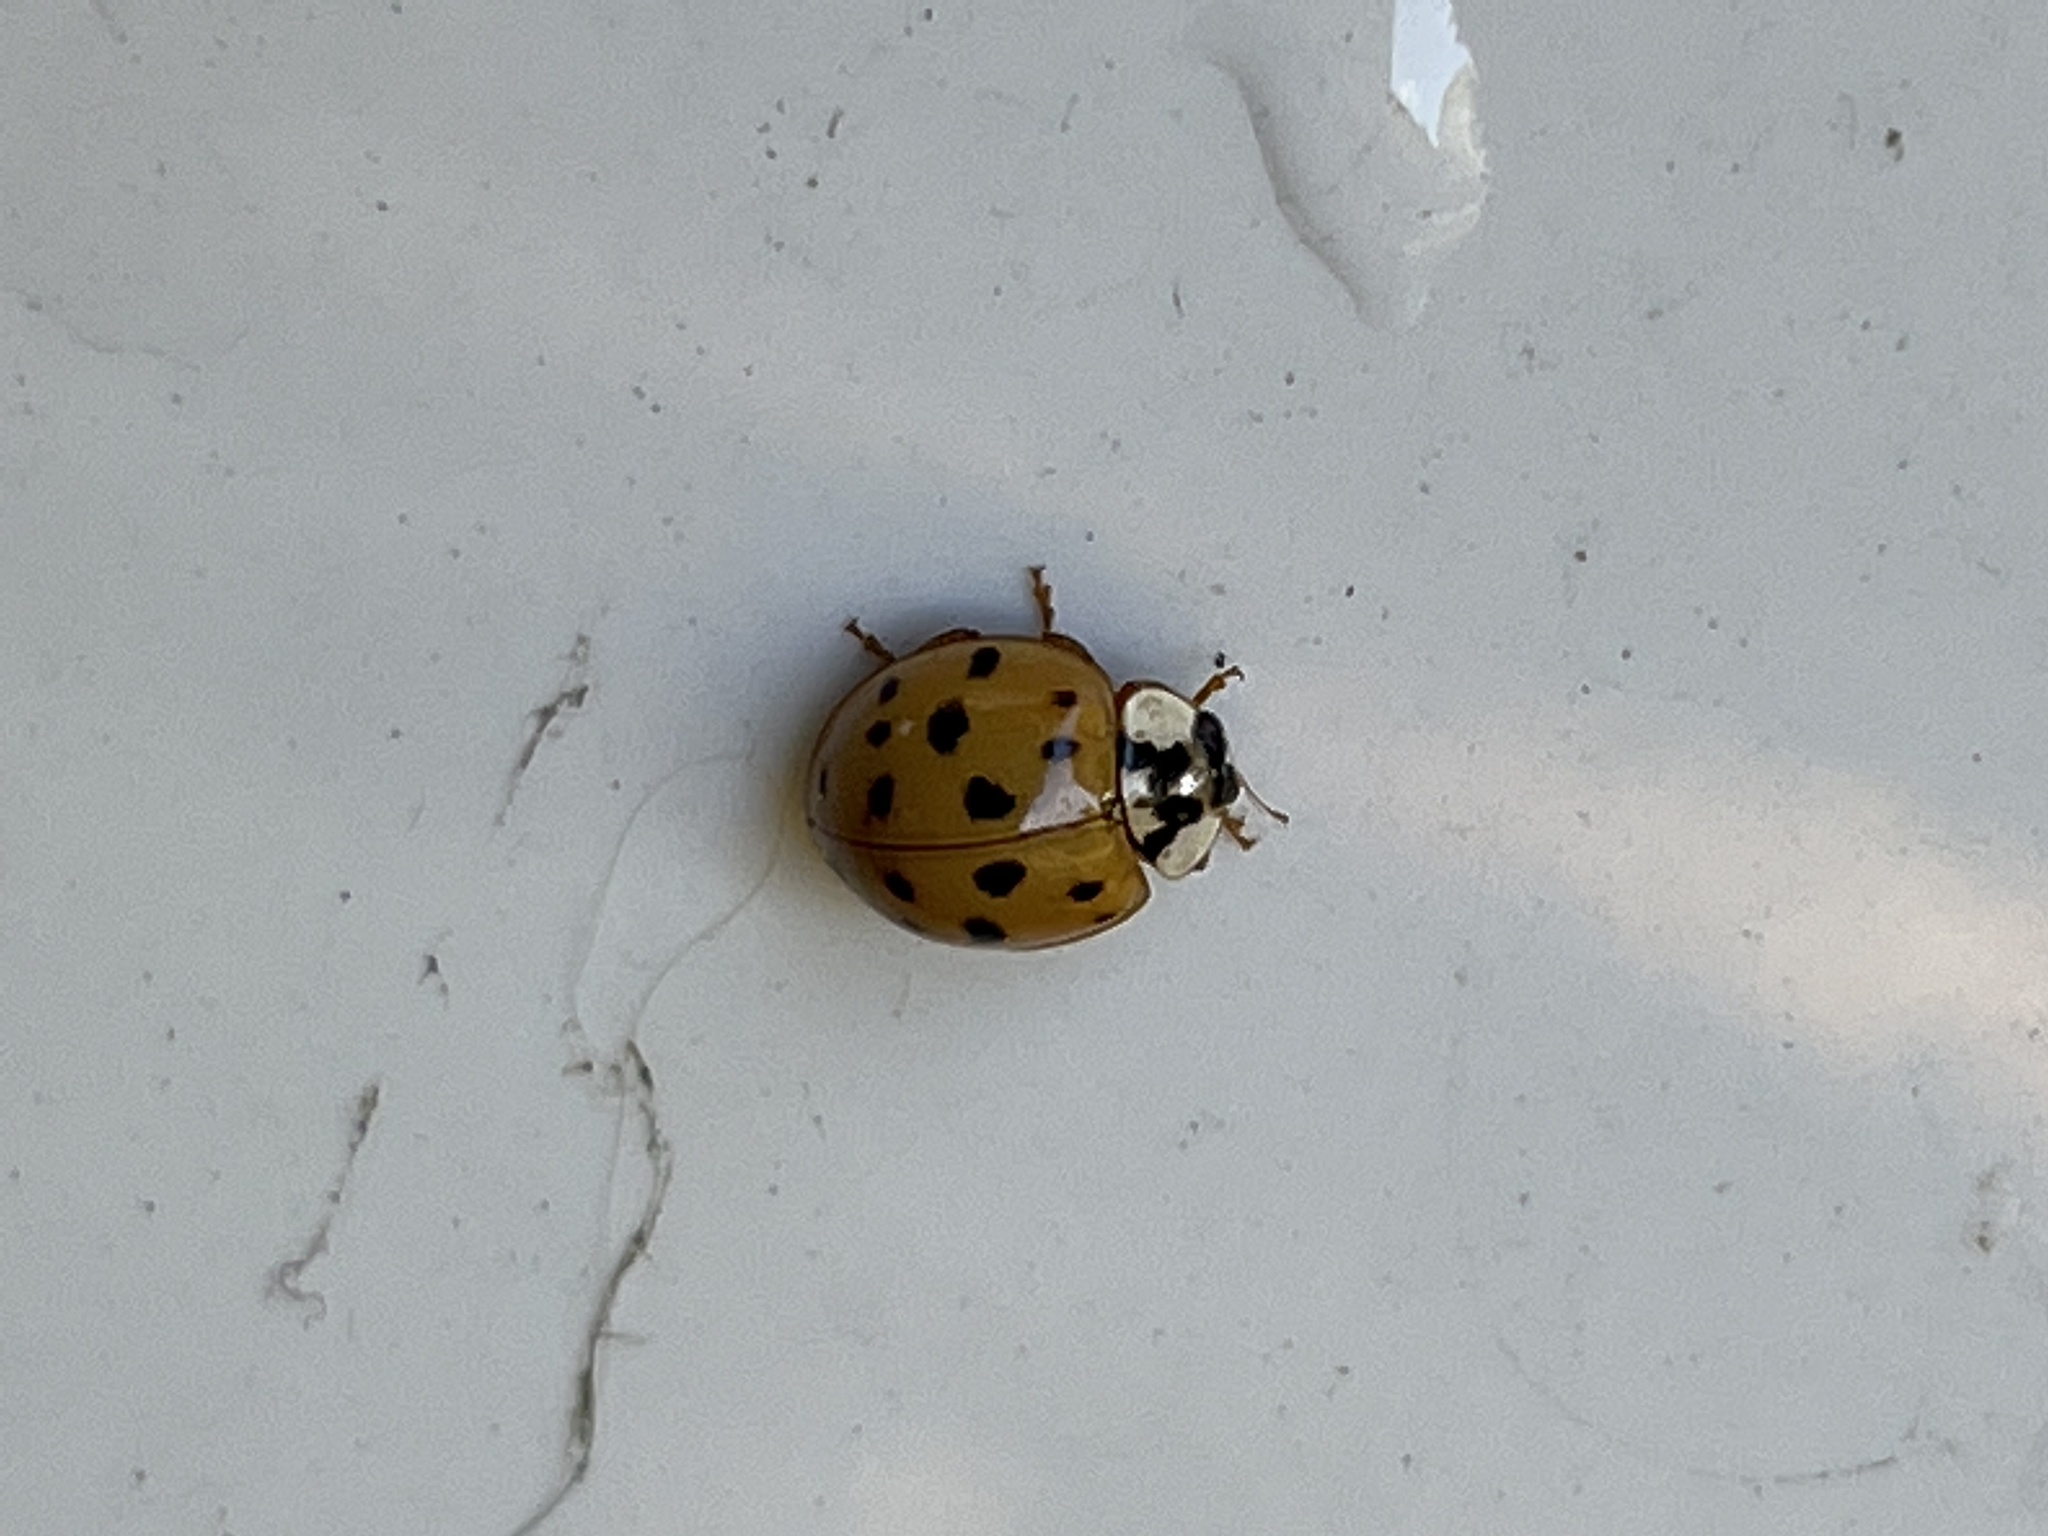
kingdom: Animalia
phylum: Arthropoda
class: Insecta
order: Coleoptera
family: Coccinellidae
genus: Harmonia
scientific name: Harmonia axyridis
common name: Harlequin ladybird
